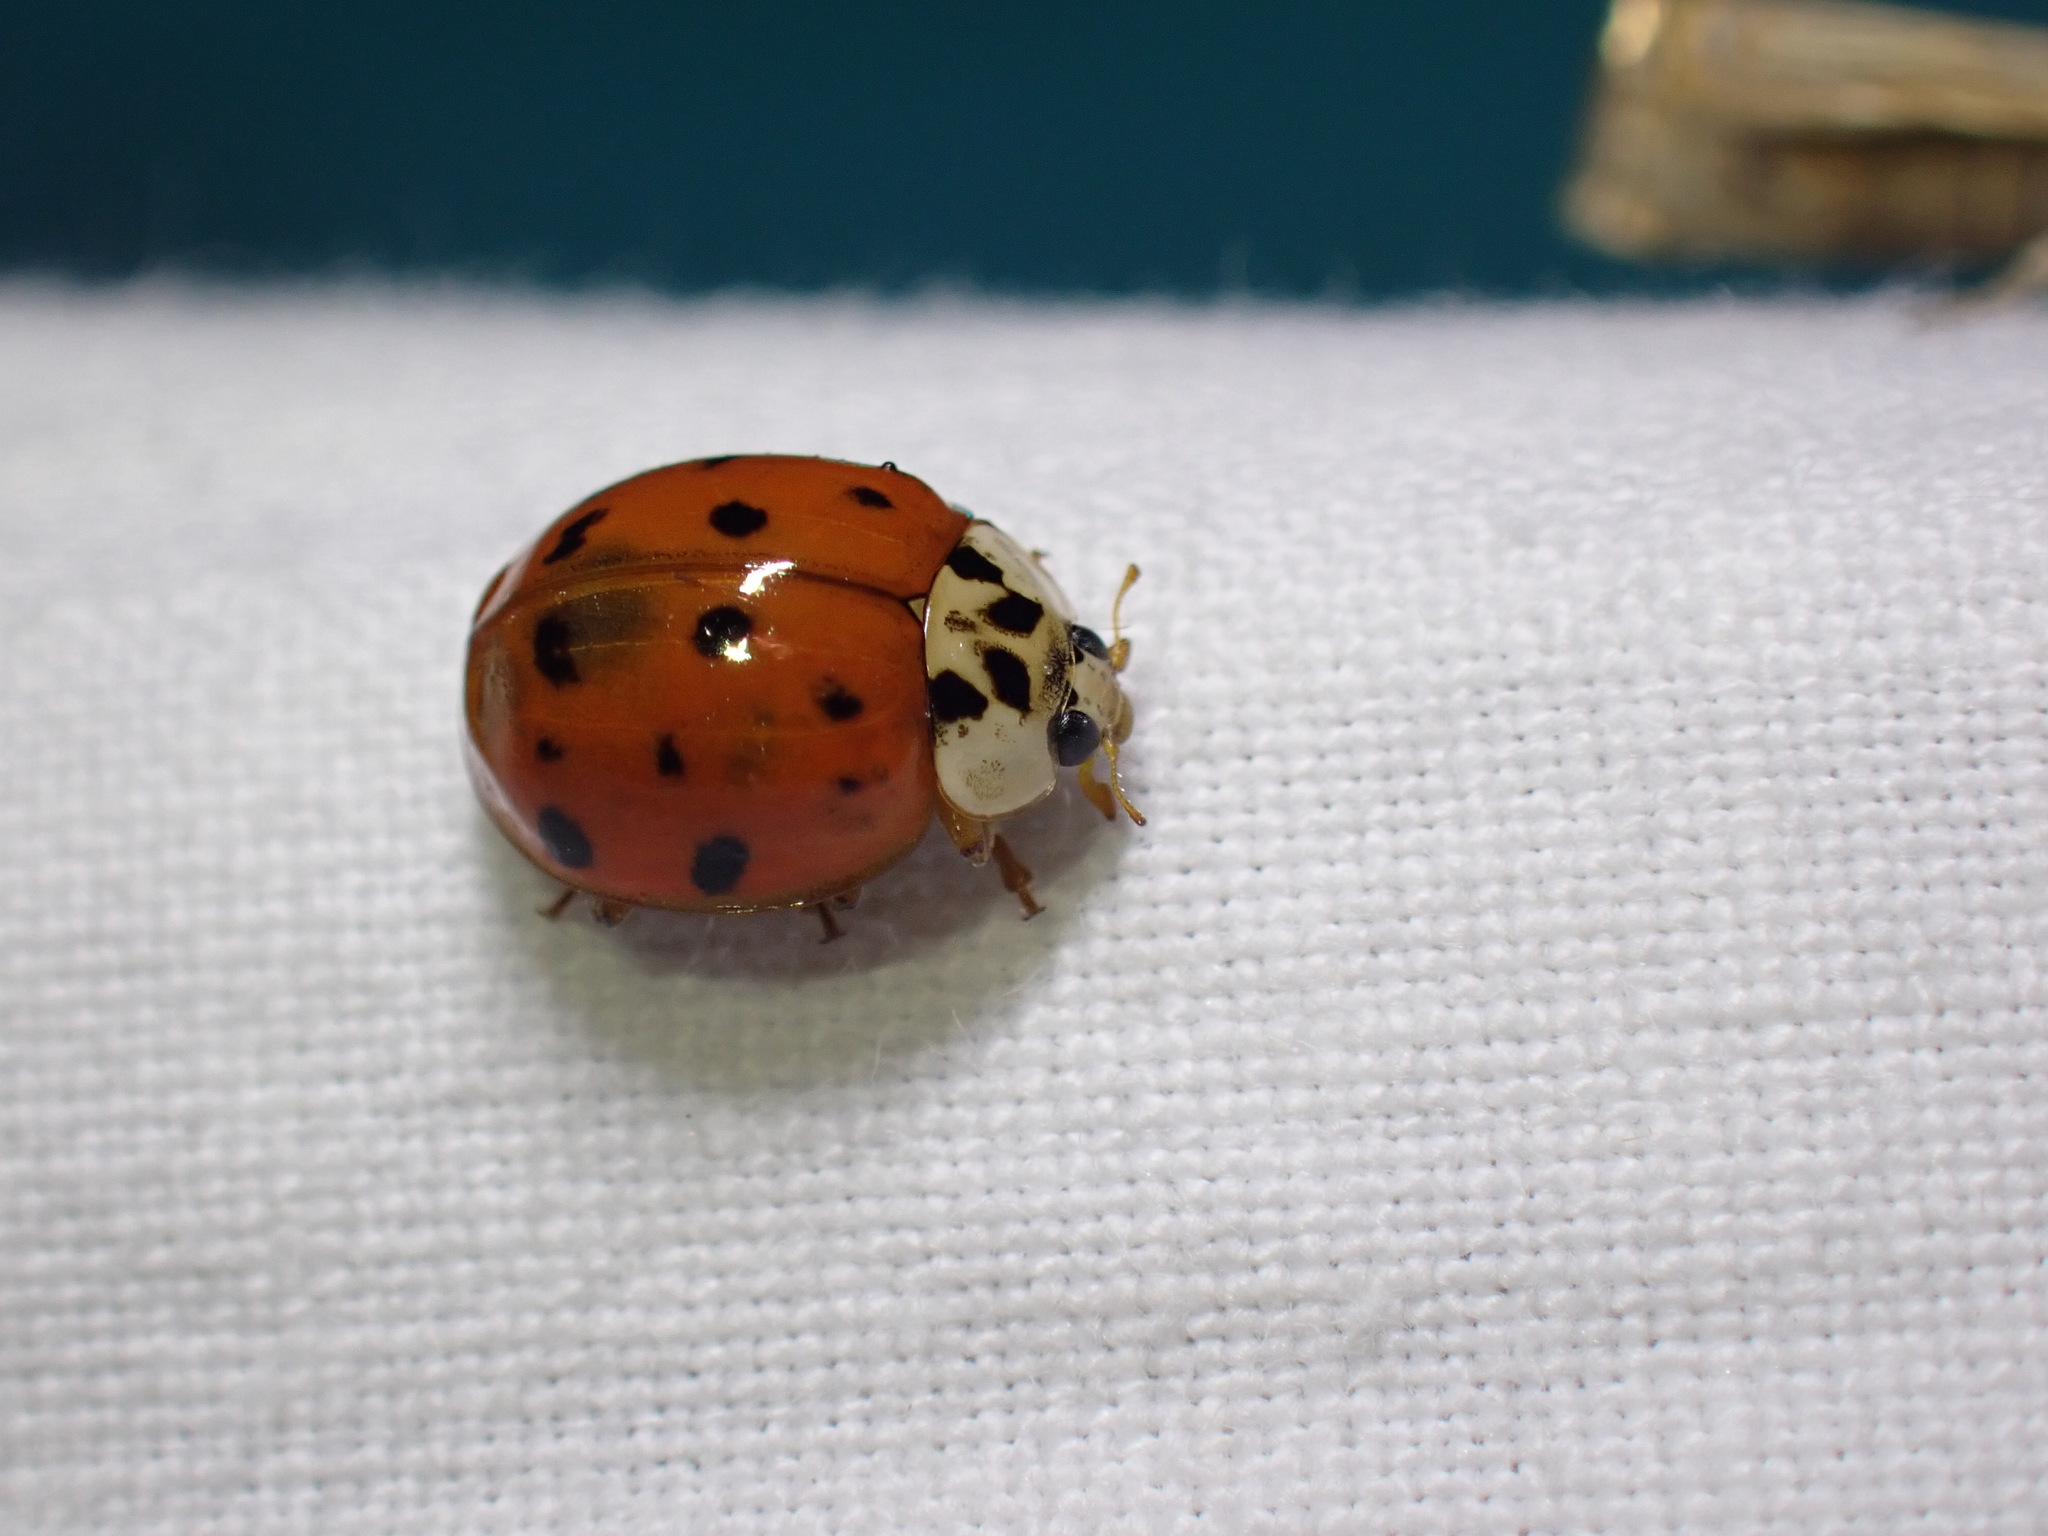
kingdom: Animalia
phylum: Arthropoda
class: Insecta
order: Coleoptera
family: Coccinellidae
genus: Harmonia
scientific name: Harmonia axyridis
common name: Harlequin ladybird
